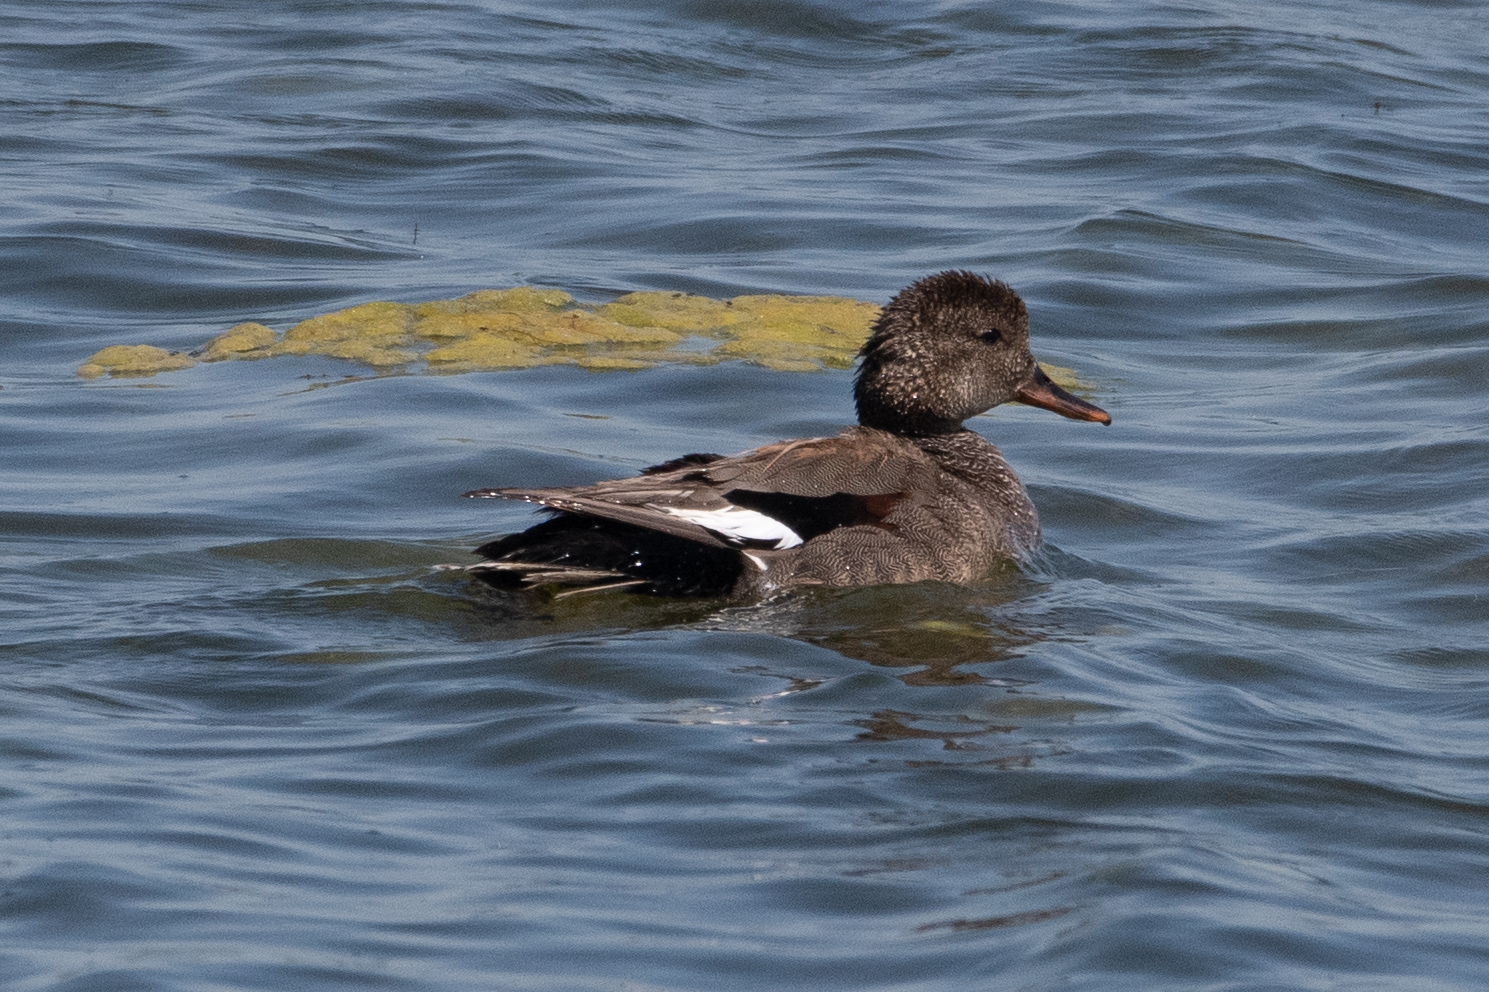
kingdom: Animalia
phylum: Chordata
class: Aves
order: Anseriformes
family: Anatidae
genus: Mareca
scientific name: Mareca strepera
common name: Gadwall
